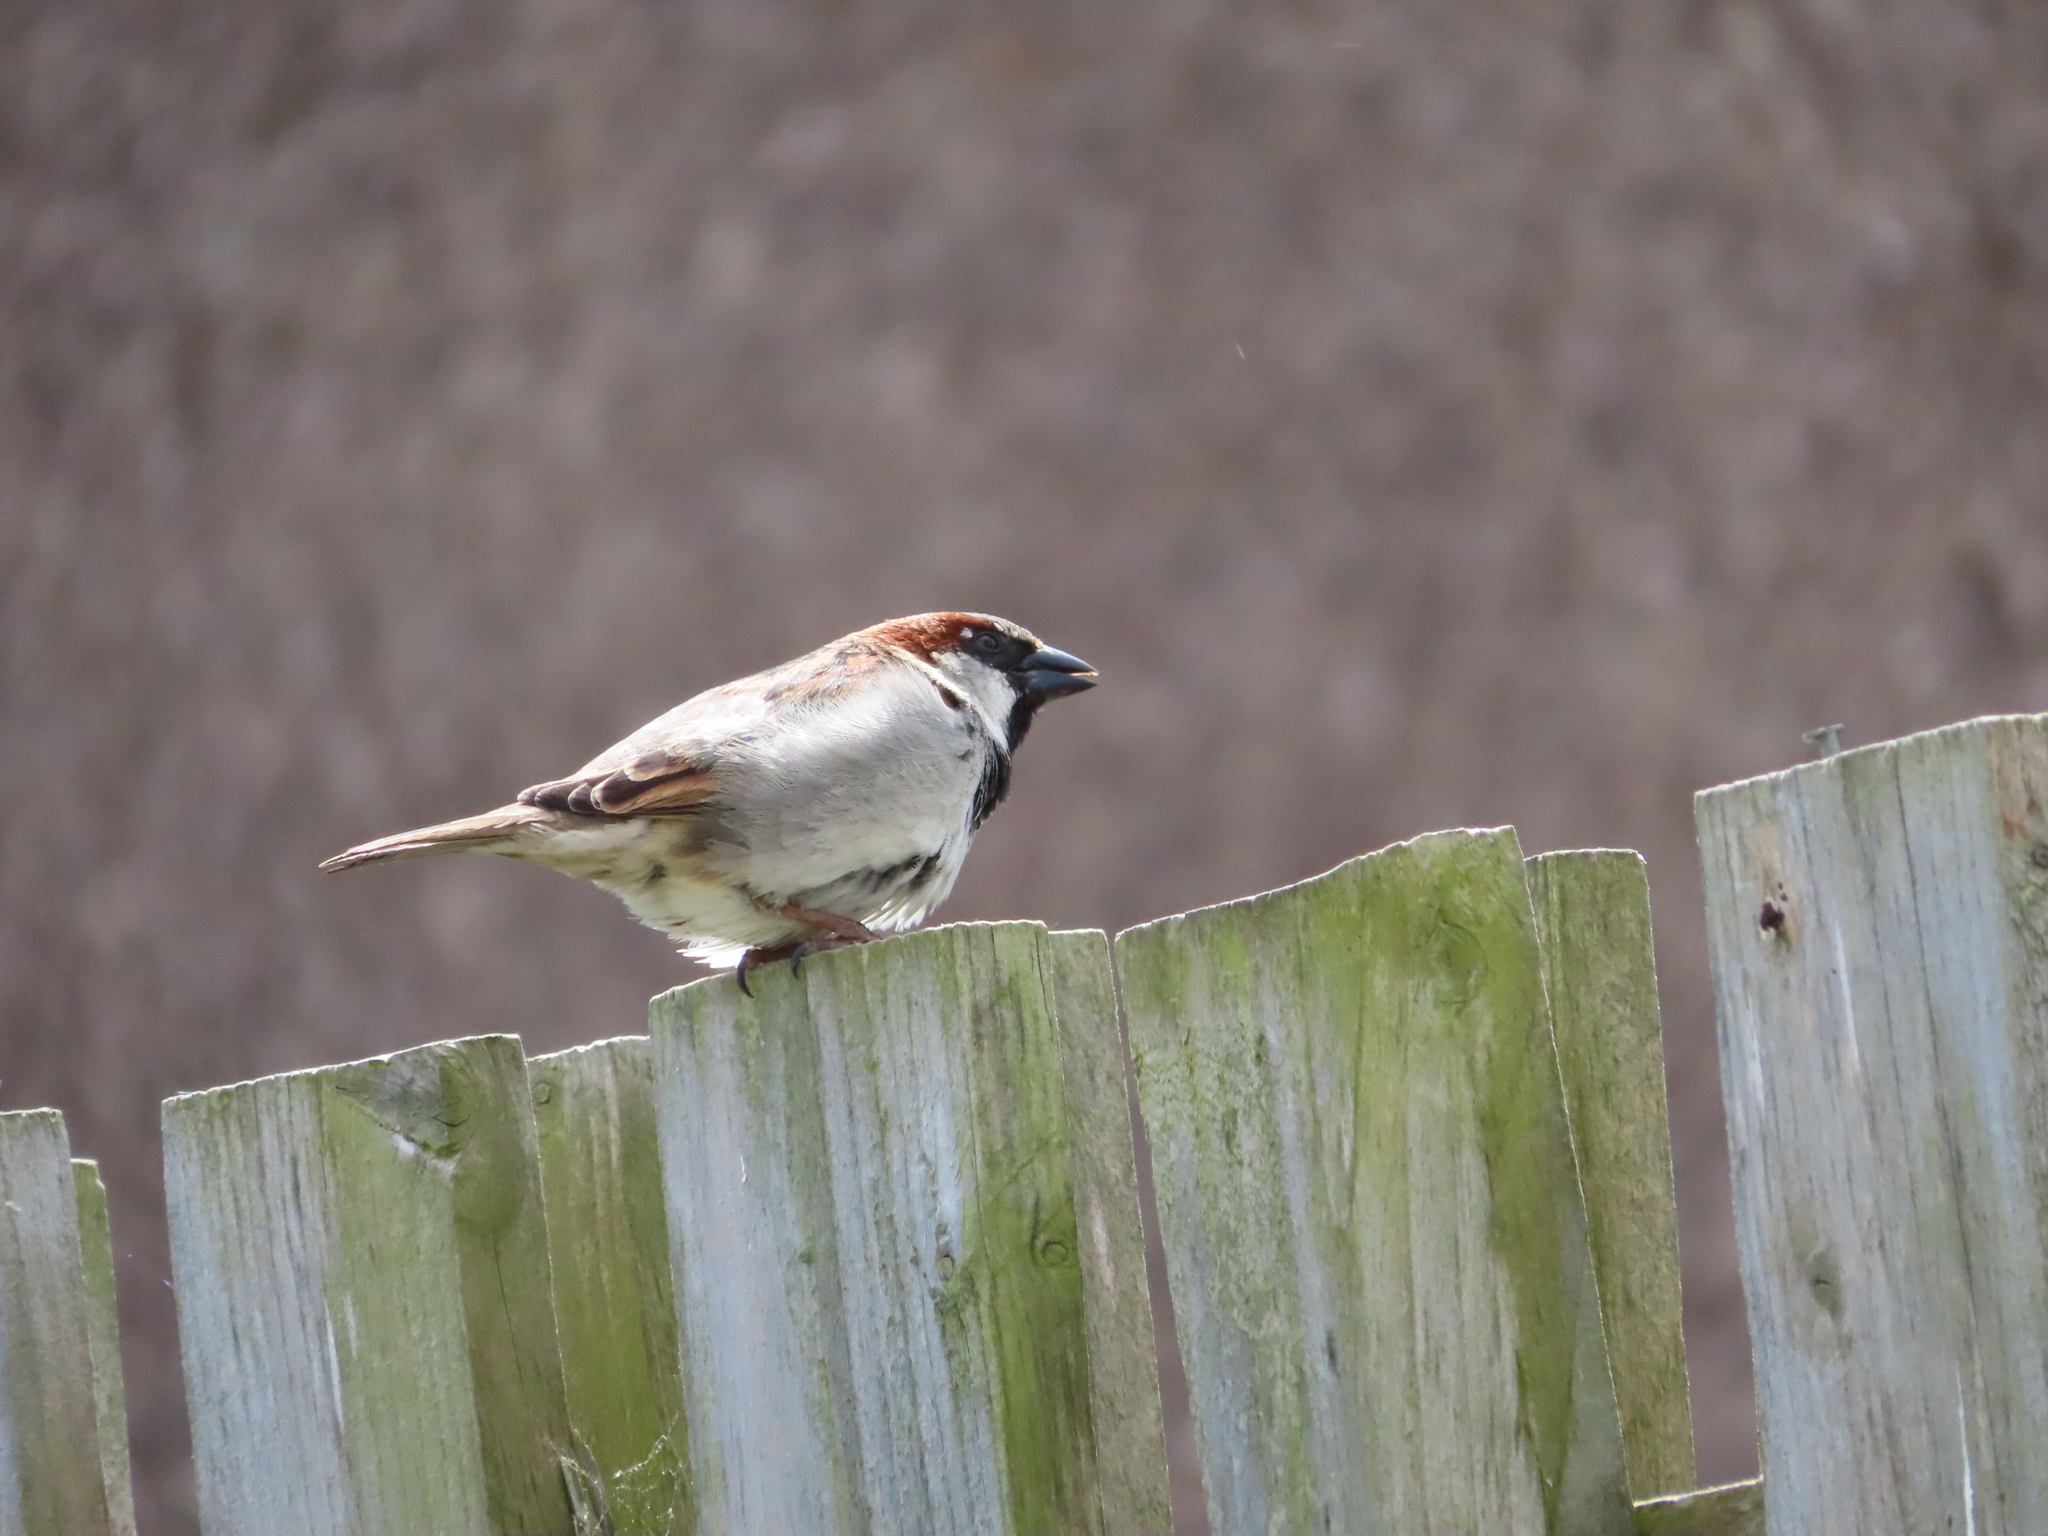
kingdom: Animalia
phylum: Chordata
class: Aves
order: Passeriformes
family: Passeridae
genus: Passer
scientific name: Passer domesticus
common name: House sparrow
